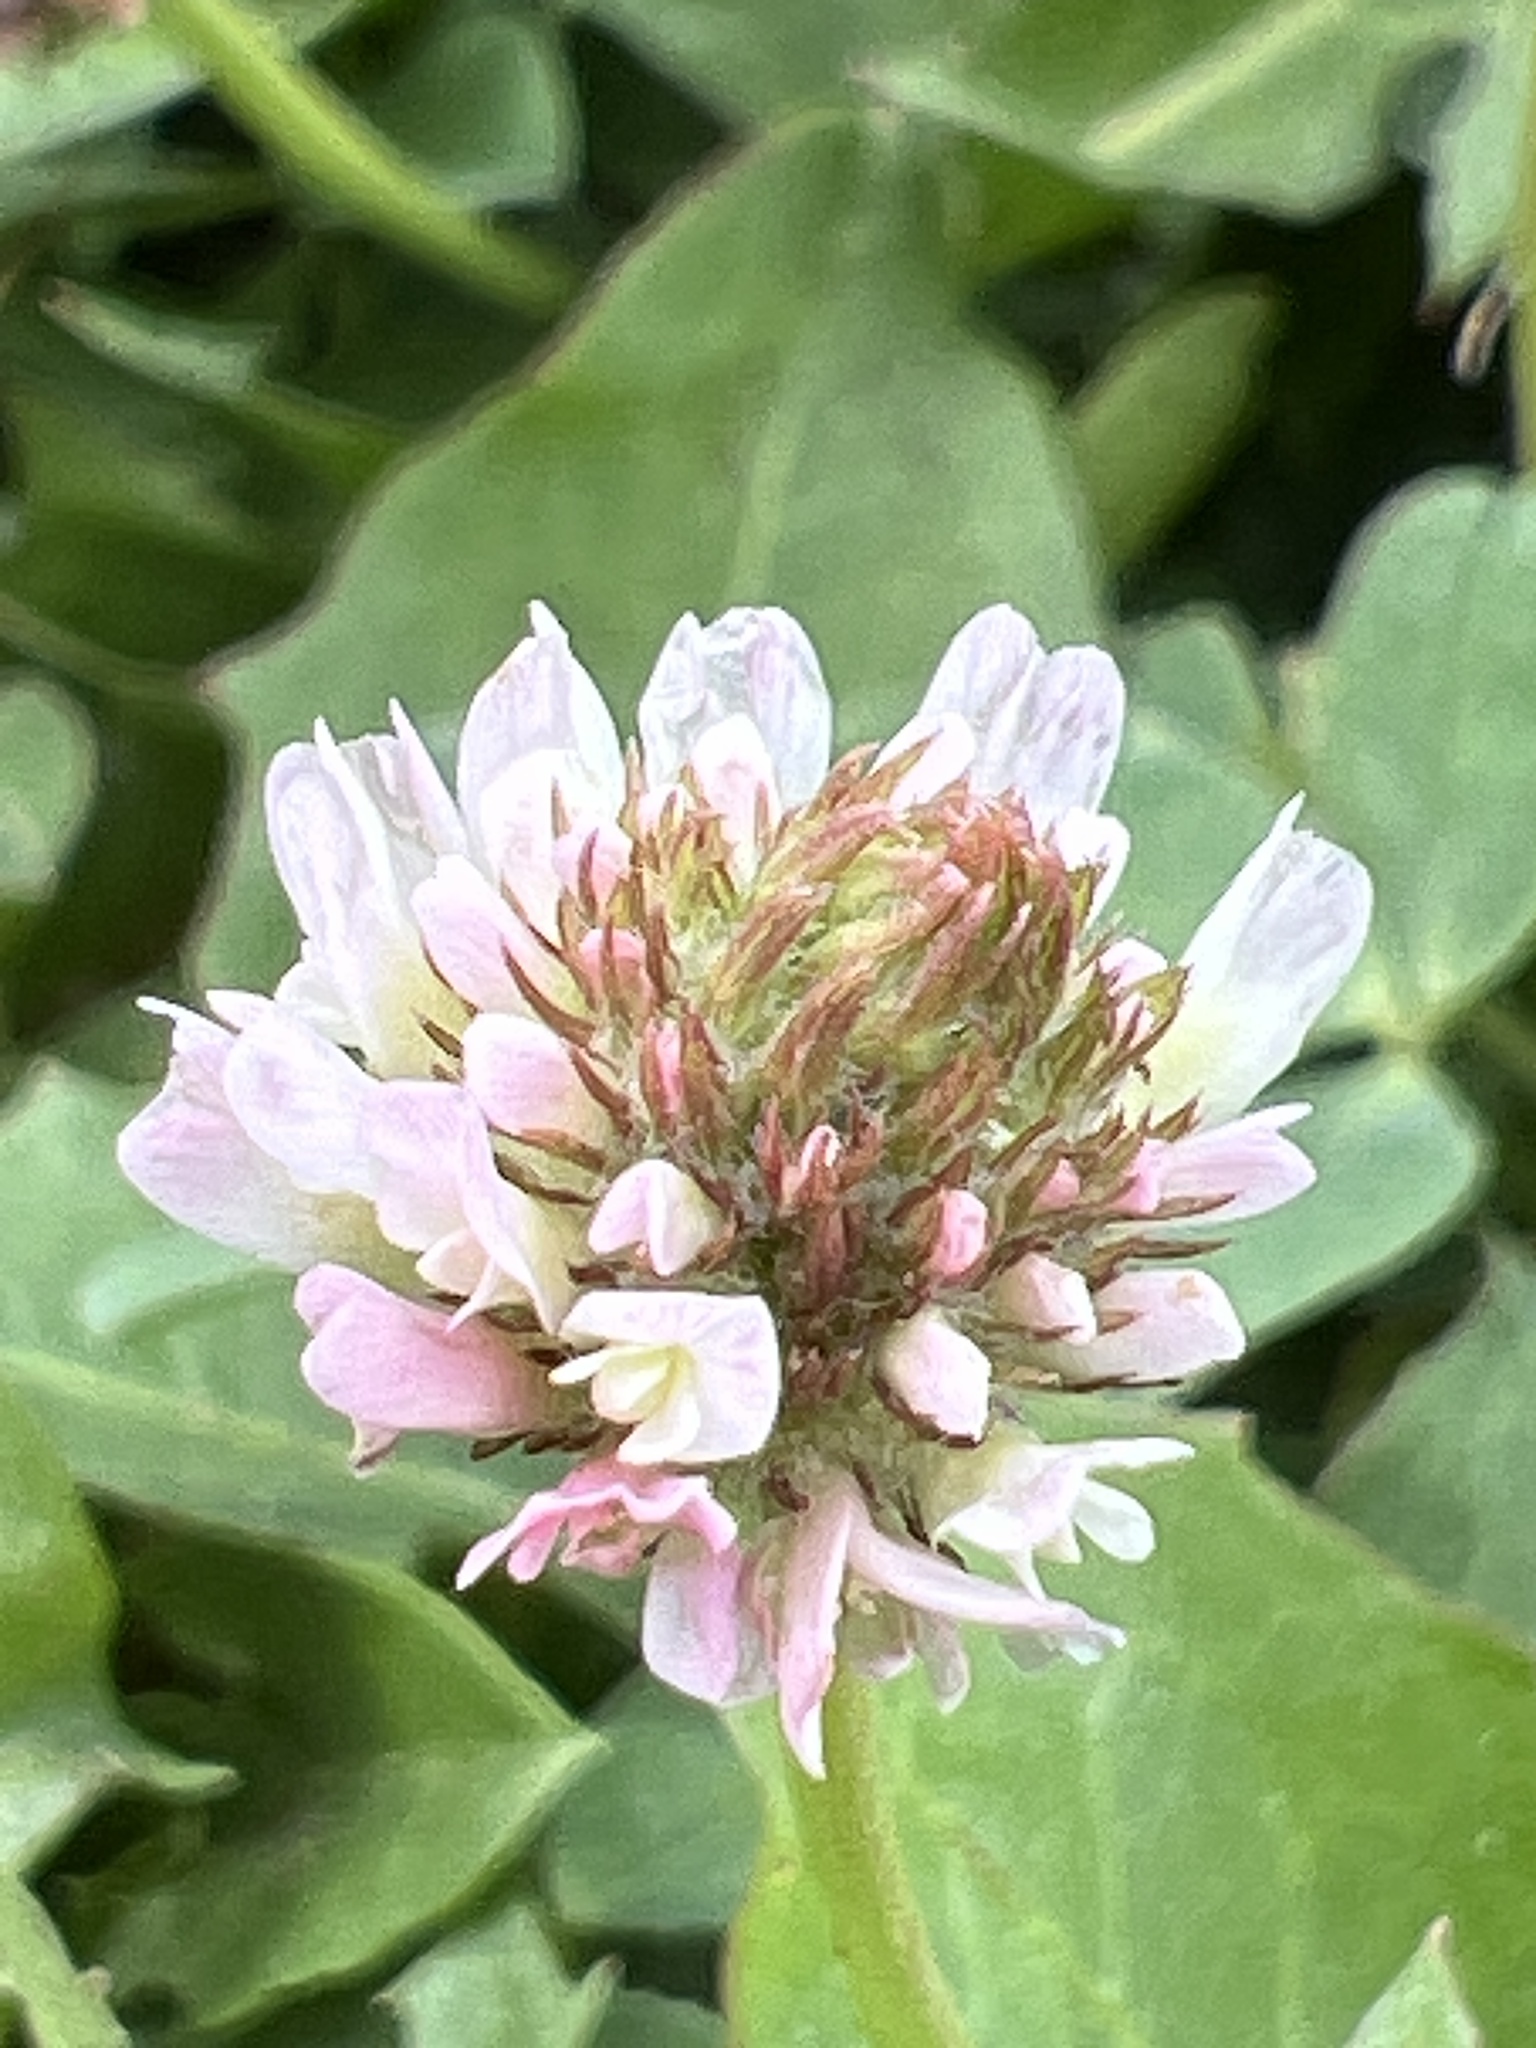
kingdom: Plantae
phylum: Tracheophyta
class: Magnoliopsida
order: Fabales
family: Fabaceae
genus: Trifolium
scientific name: Trifolium fragiferum
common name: Strawberry clover
